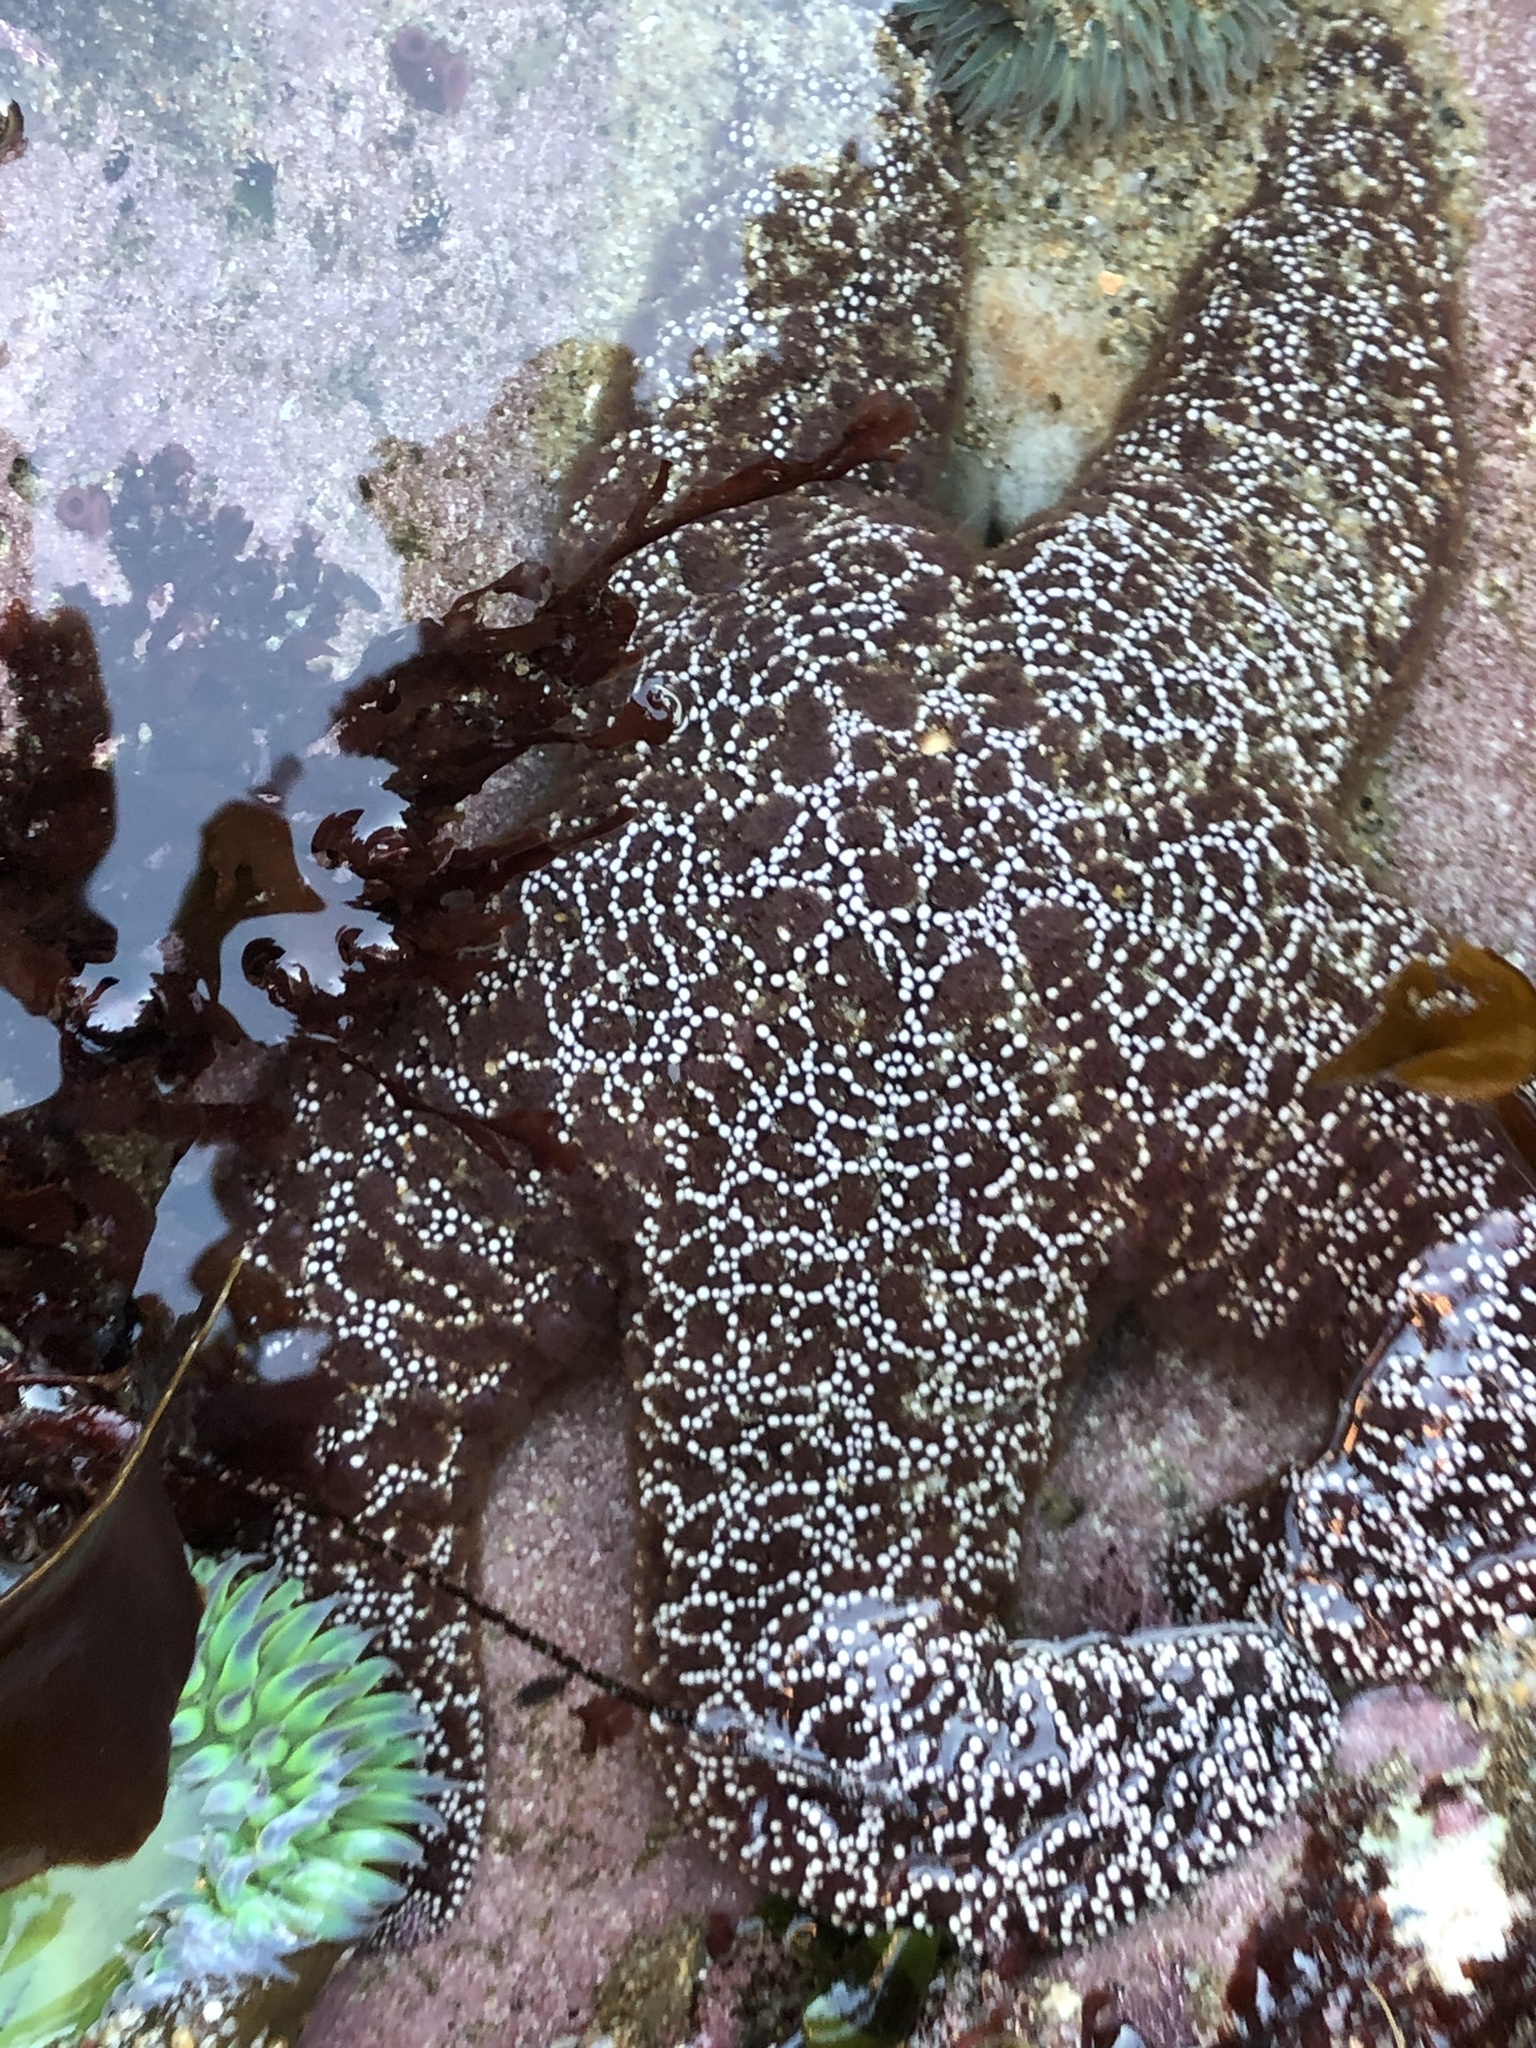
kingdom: Animalia
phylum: Echinodermata
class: Asteroidea
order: Forcipulatida
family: Asteriidae
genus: Pisaster
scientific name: Pisaster ochraceus
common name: Ochre stars
